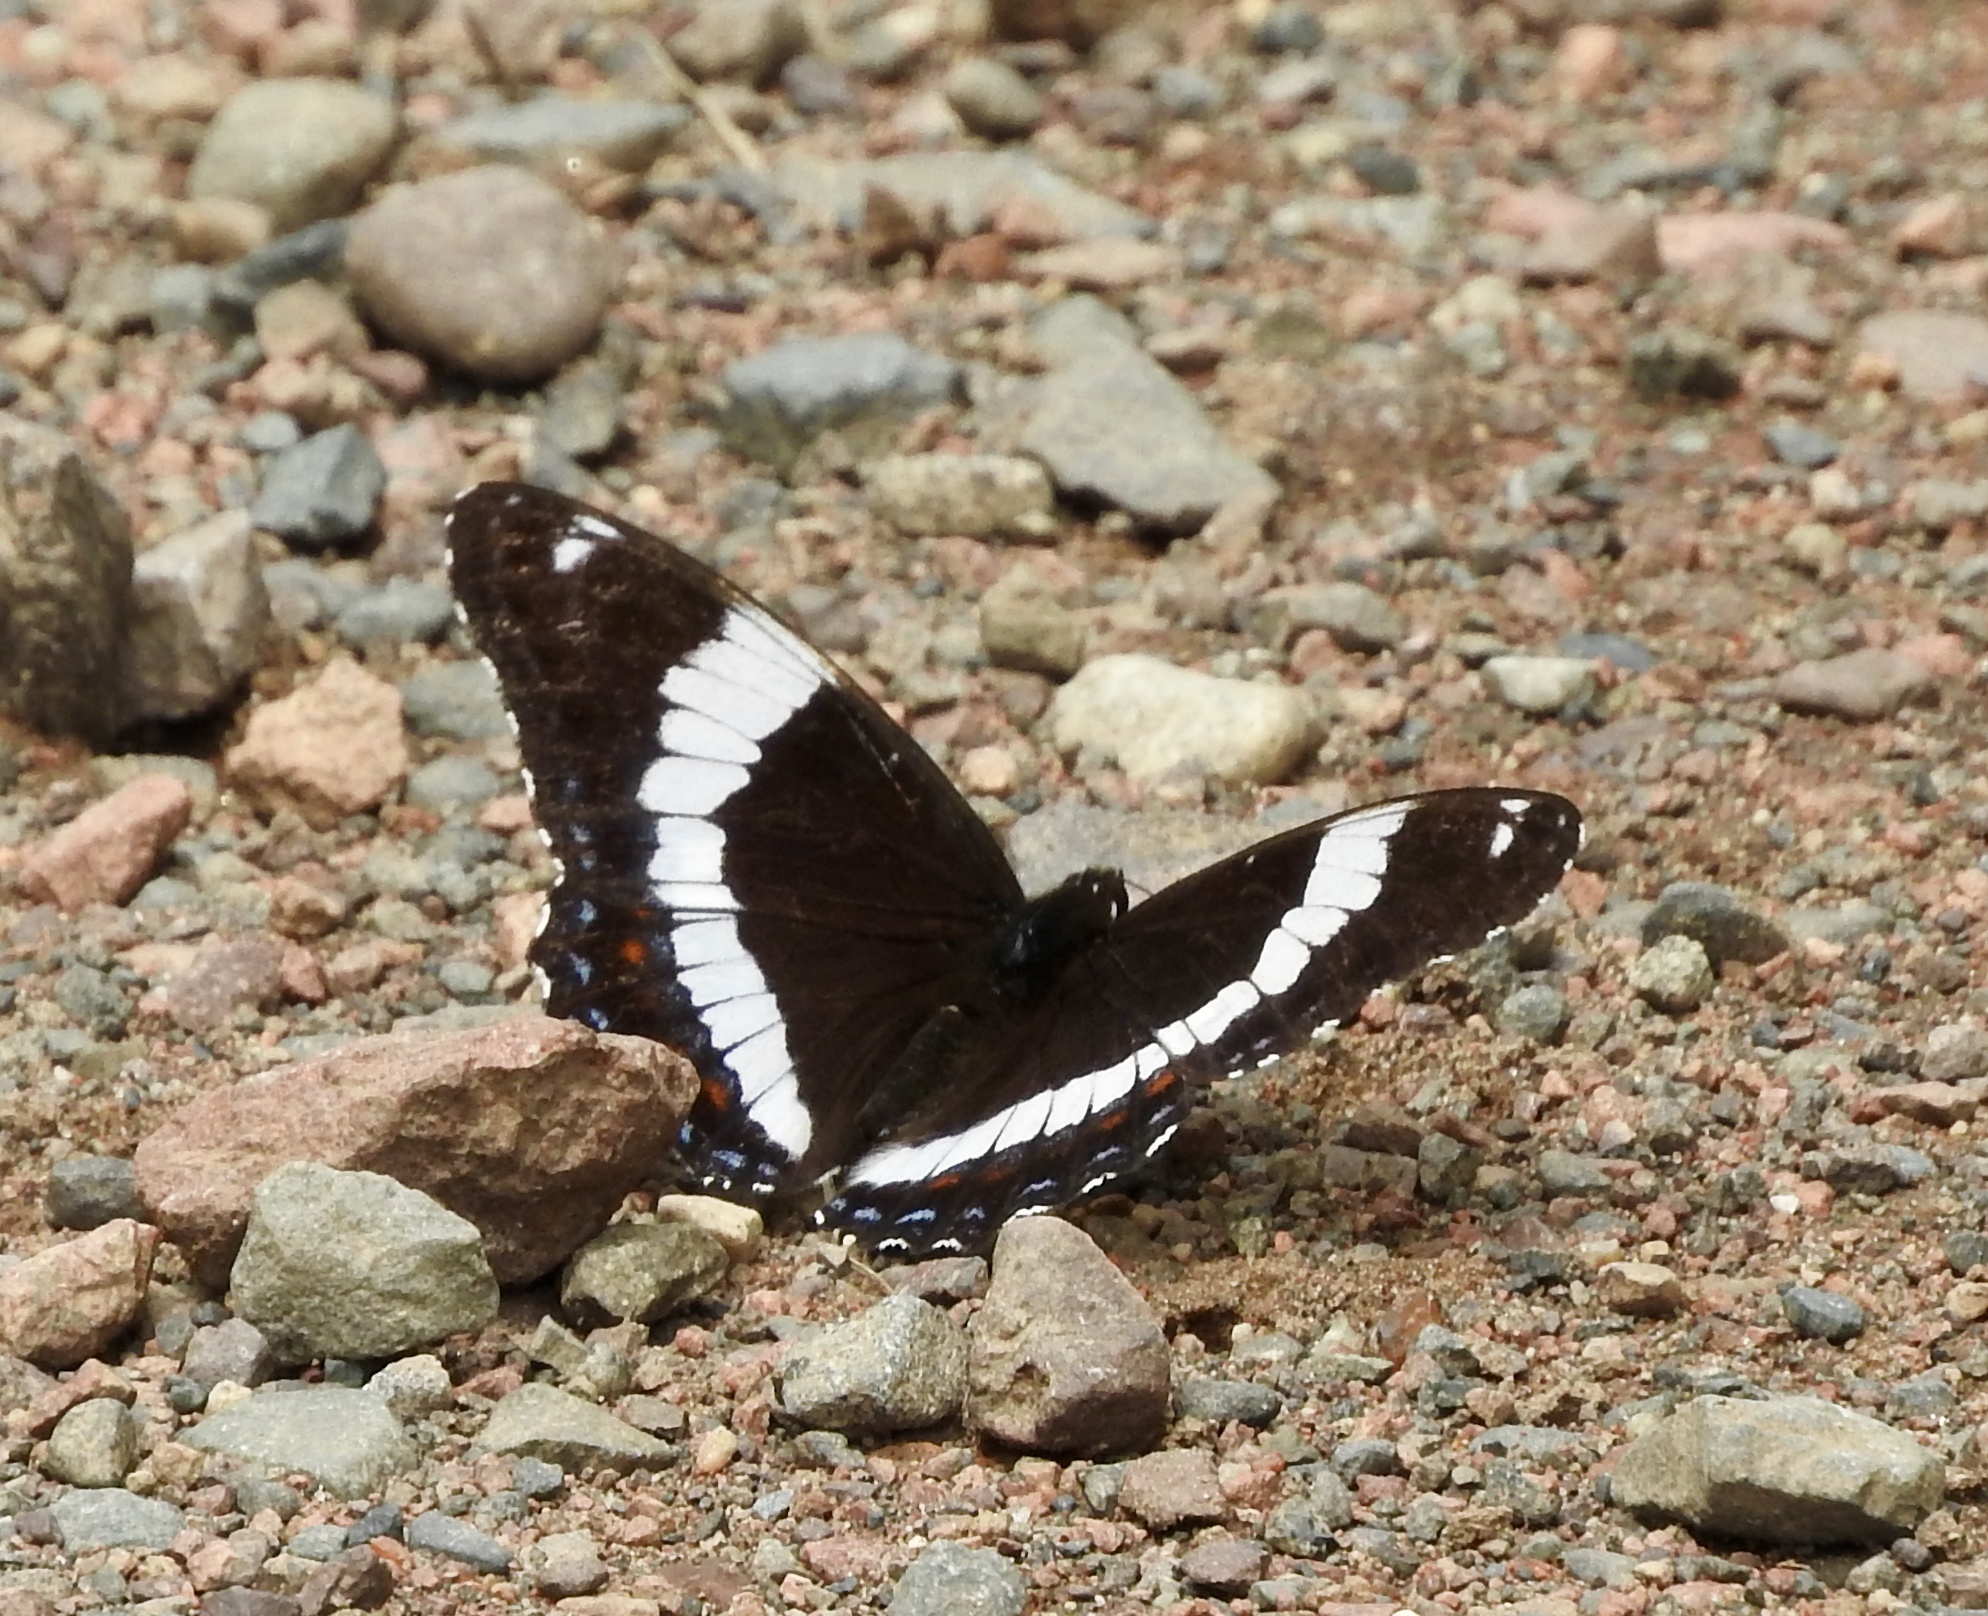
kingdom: Animalia
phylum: Arthropoda
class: Insecta
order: Lepidoptera
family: Nymphalidae
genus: Limenitis
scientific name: Limenitis arthemis
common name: Red-spotted admiral
